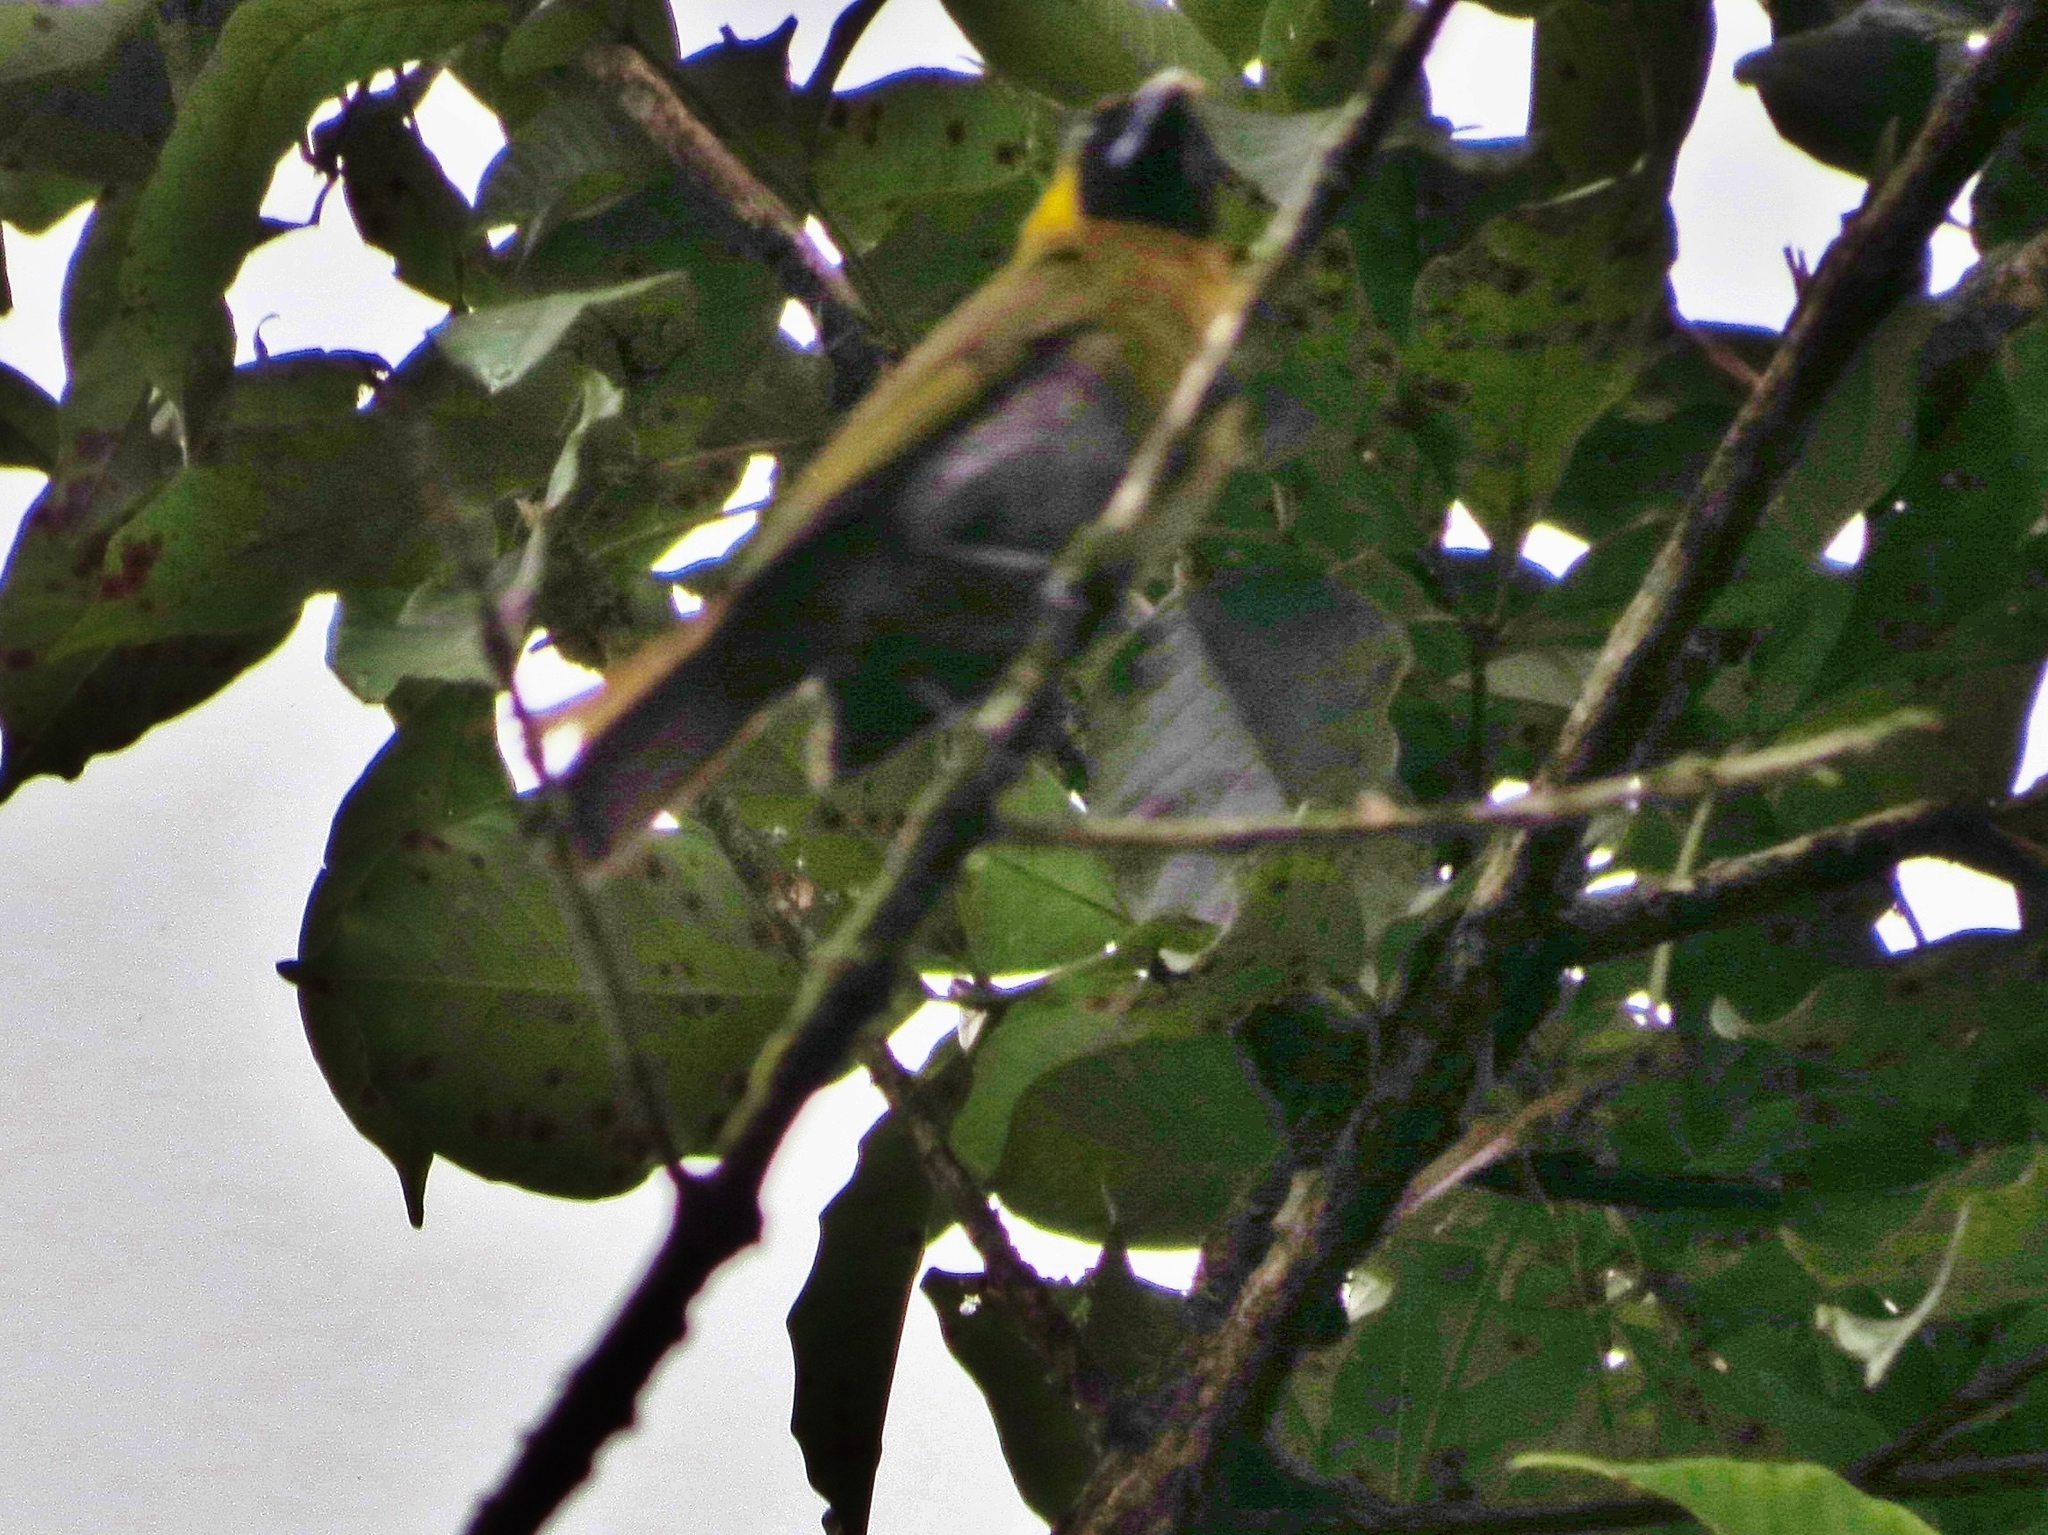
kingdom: Animalia
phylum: Chordata
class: Aves
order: Passeriformes
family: Cardinalidae
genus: Caryothraustes
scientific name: Caryothraustes poliogaster
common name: Black-faced grosbeak
